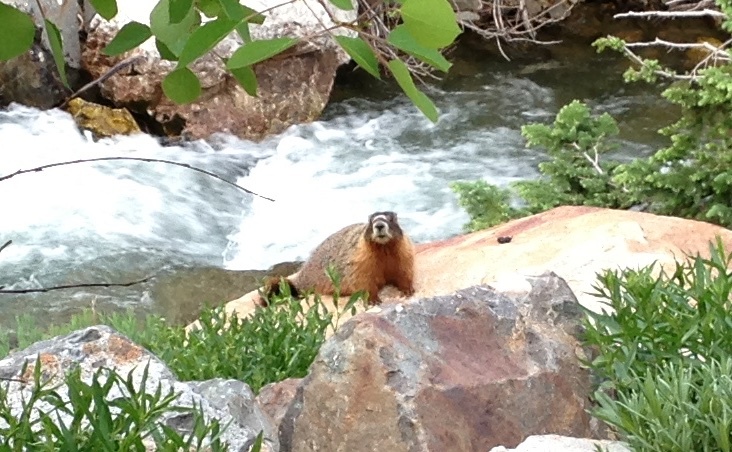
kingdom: Animalia
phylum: Chordata
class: Mammalia
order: Rodentia
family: Sciuridae
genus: Marmota
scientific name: Marmota flaviventris
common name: Yellow-bellied marmot
